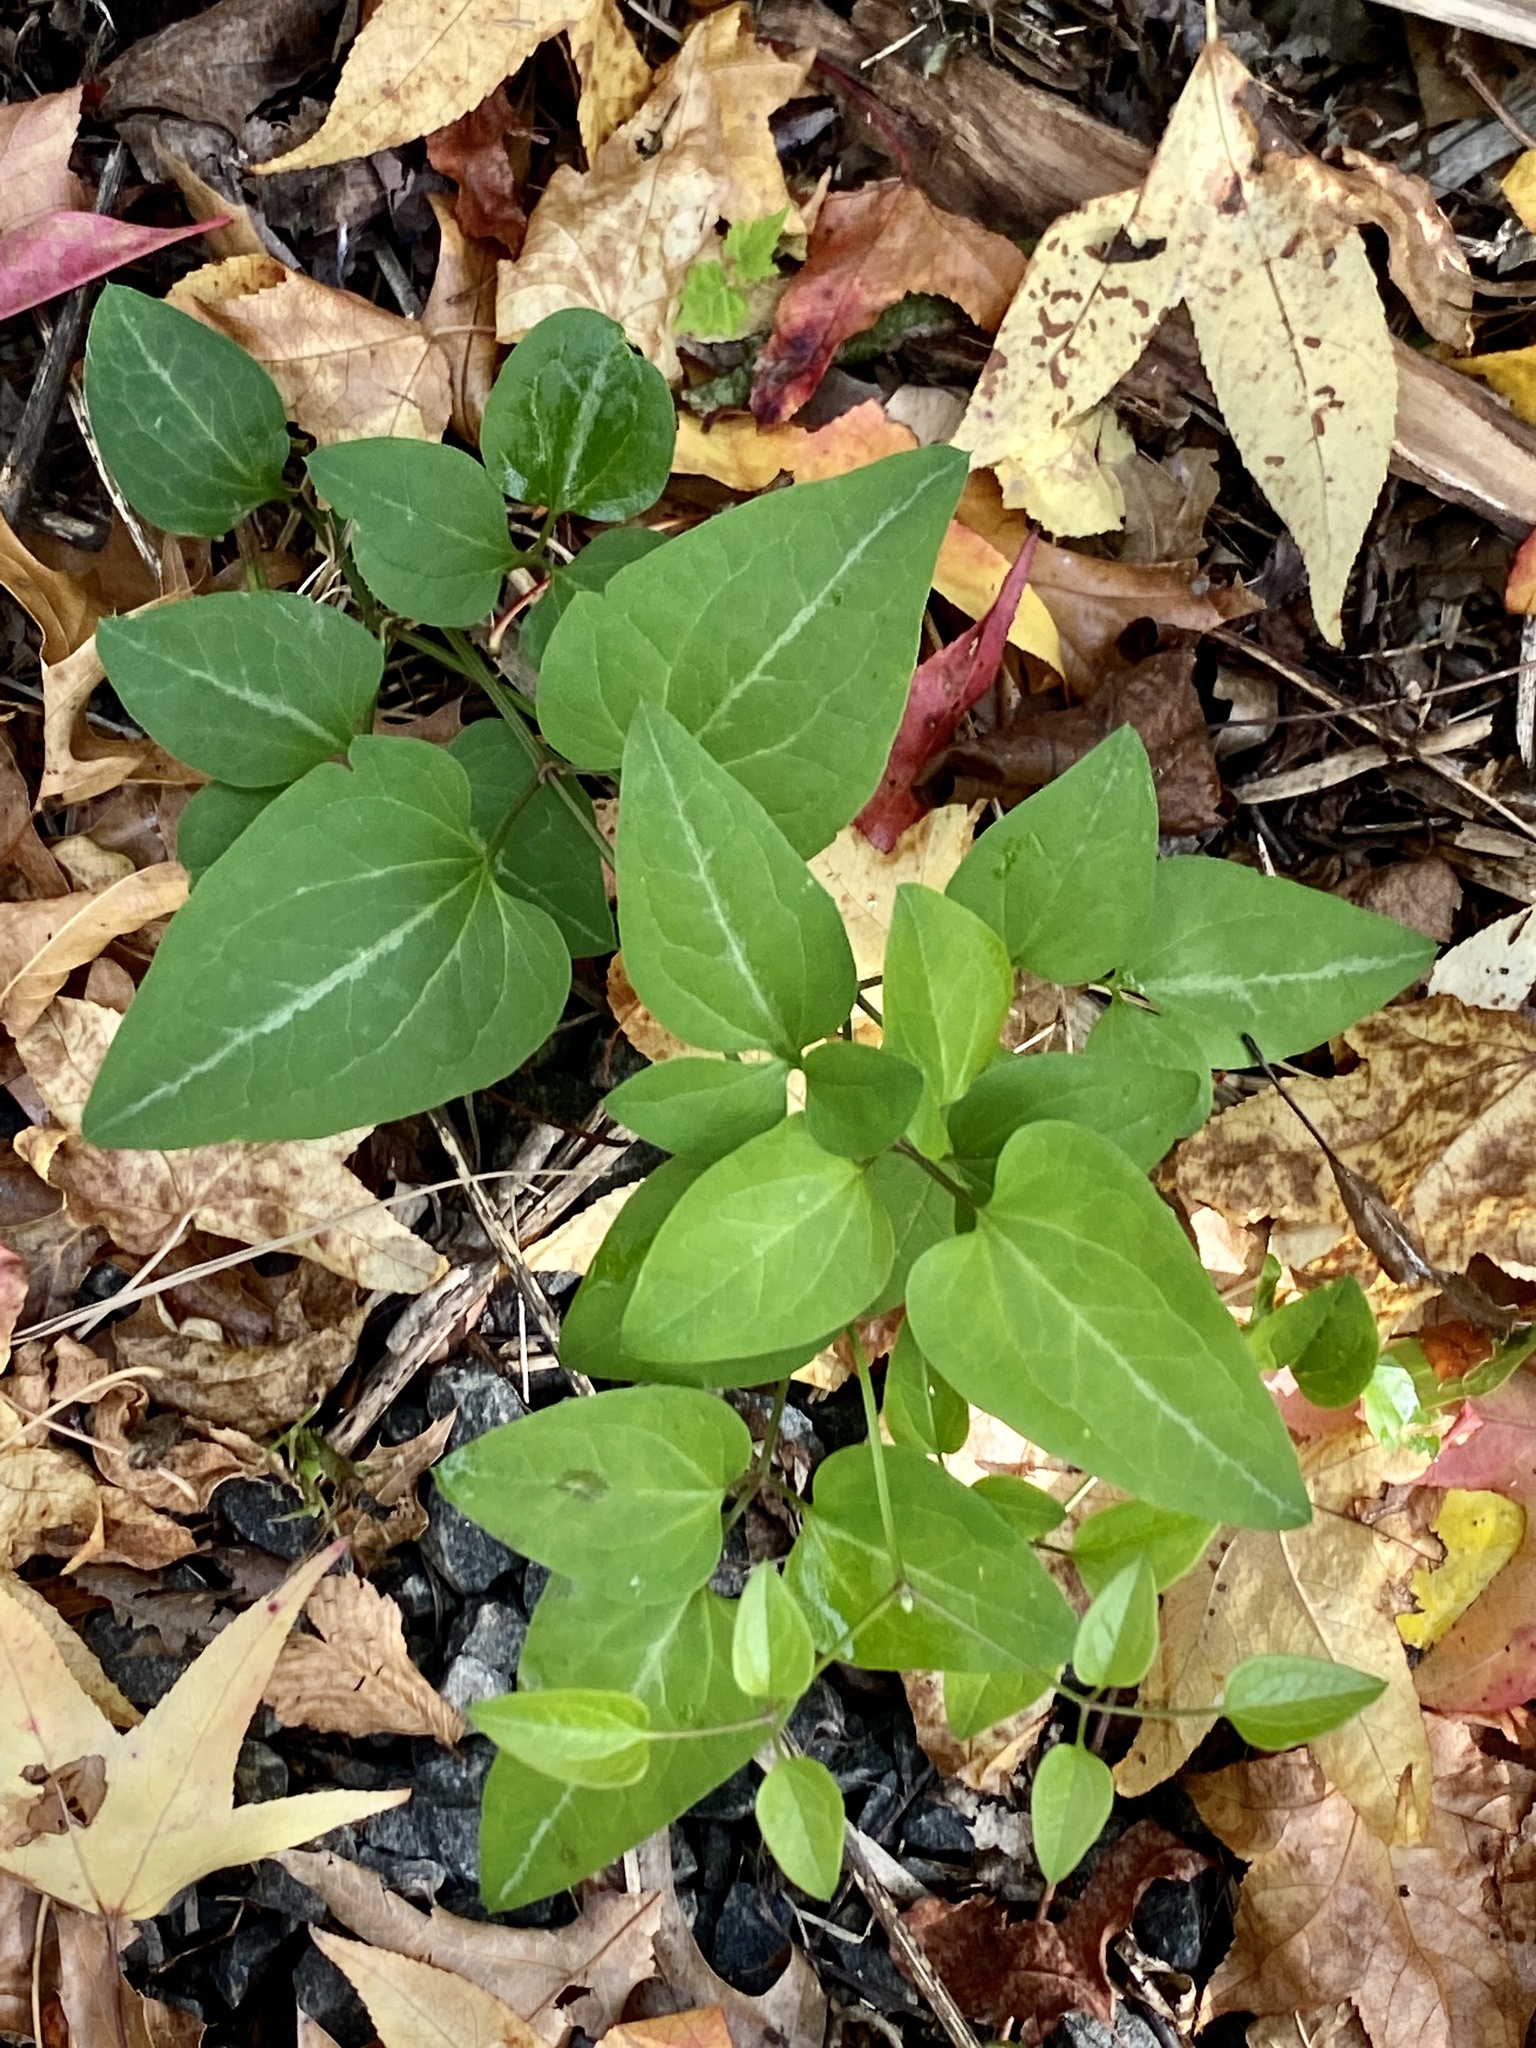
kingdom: Plantae
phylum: Tracheophyta
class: Magnoliopsida
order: Ranunculales
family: Ranunculaceae
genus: Clematis
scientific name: Clematis terniflora
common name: Sweet autumn clematis
